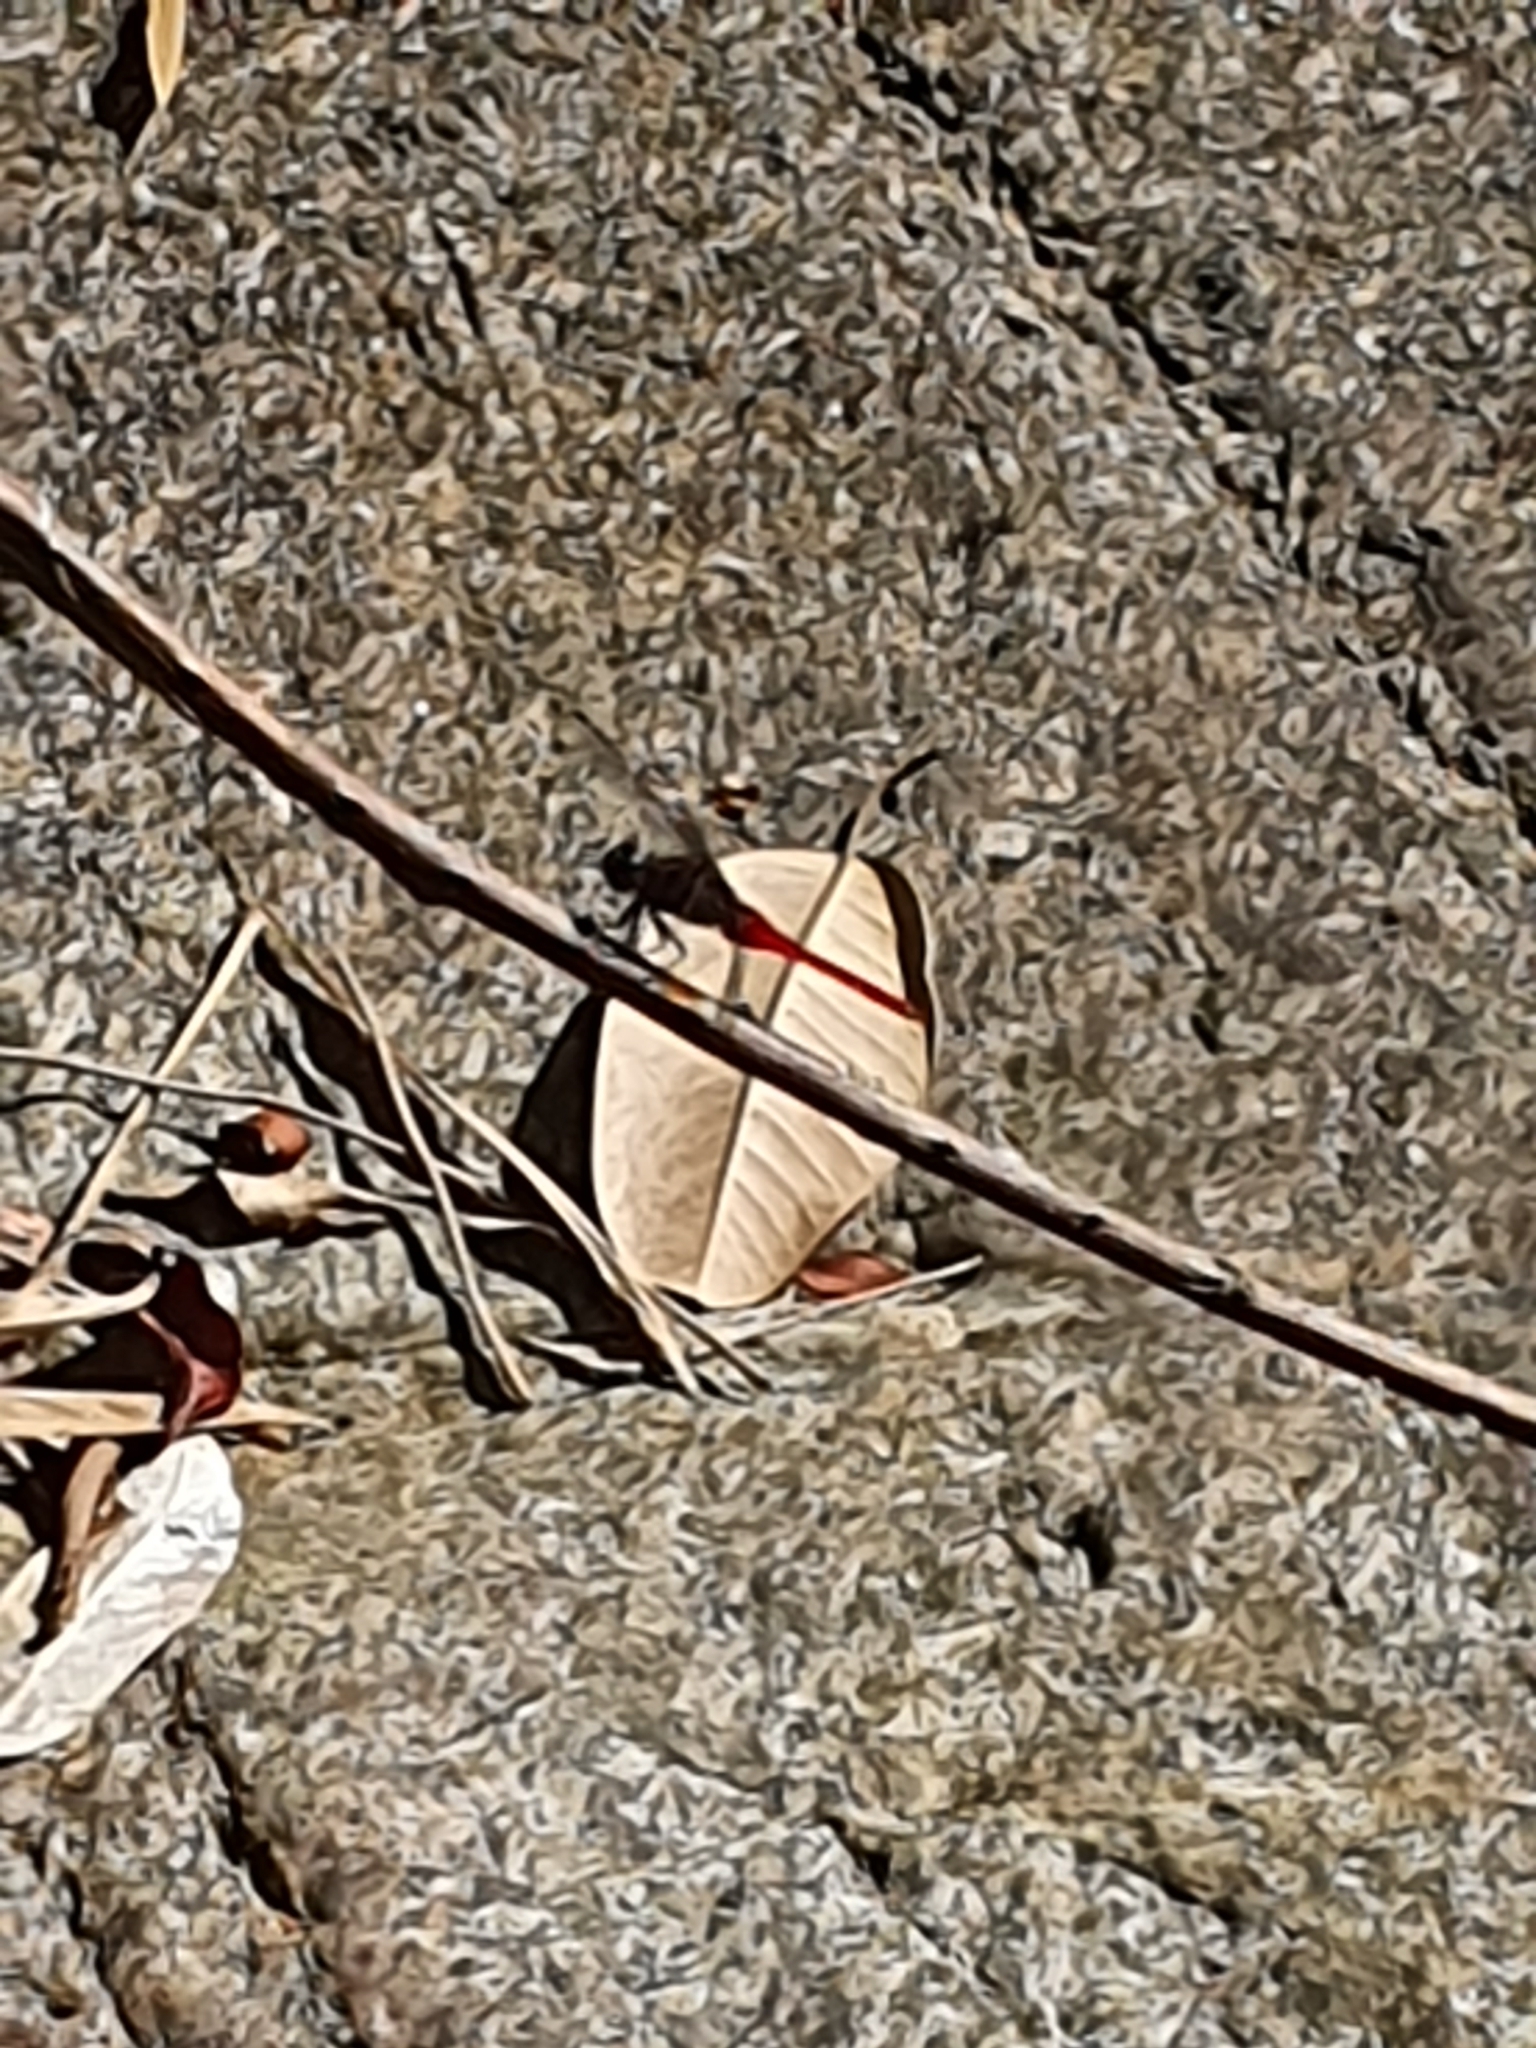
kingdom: Animalia
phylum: Arthropoda
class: Insecta
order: Odonata
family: Libellulidae
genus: Orthetrum
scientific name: Orthetrum chrysis
